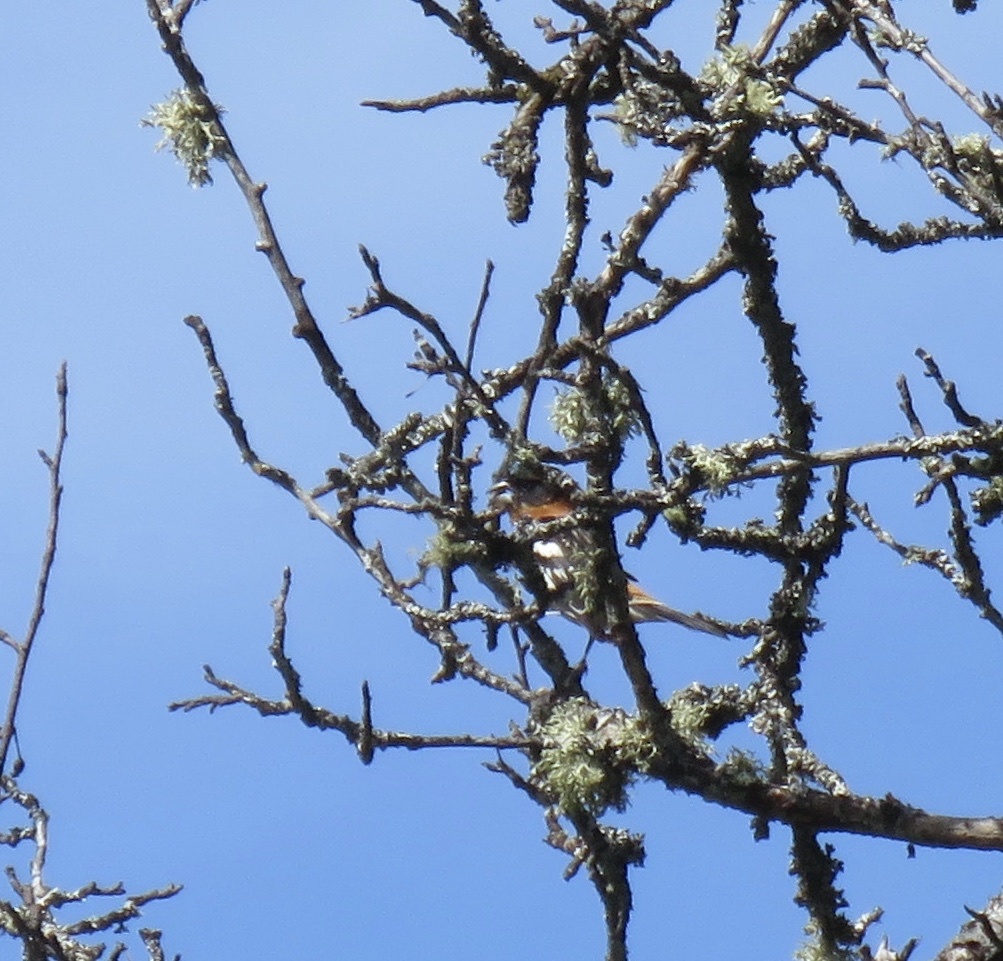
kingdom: Animalia
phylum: Chordata
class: Aves
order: Passeriformes
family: Cardinalidae
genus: Pheucticus
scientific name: Pheucticus melanocephalus
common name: Black-headed grosbeak
